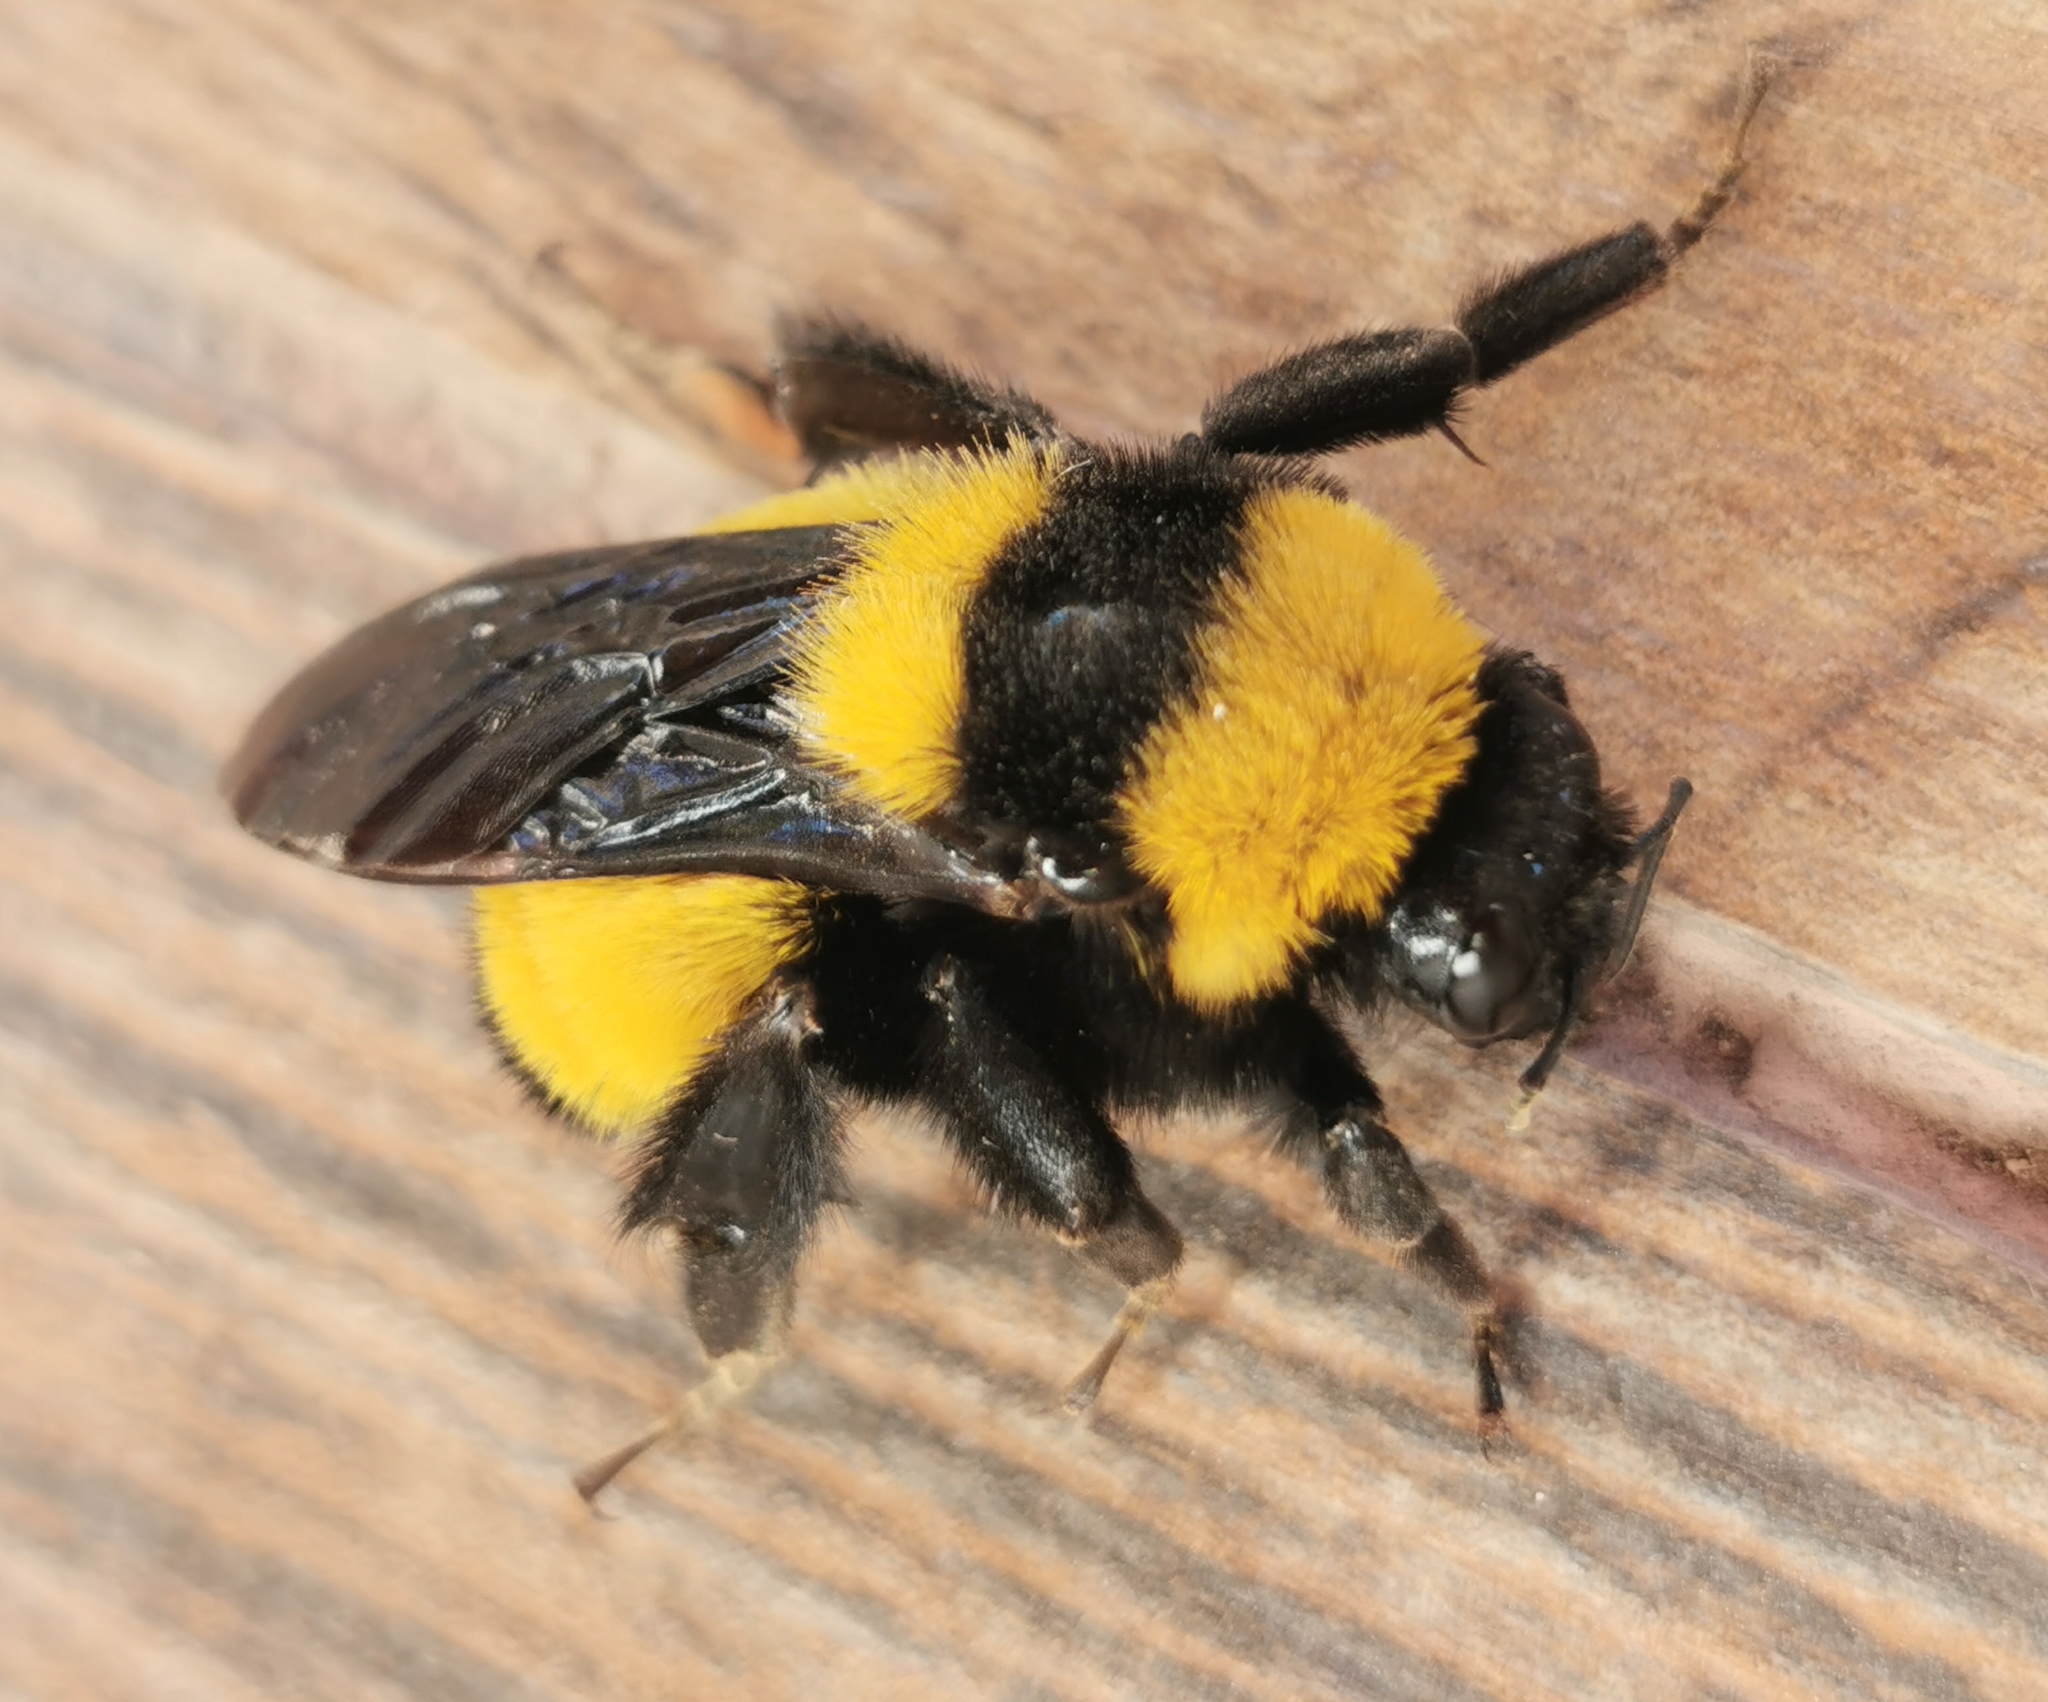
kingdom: Animalia
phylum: Arthropoda
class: Insecta
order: Hymenoptera
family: Apidae
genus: Bombus
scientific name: Bombus sonorus
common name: Sonoran bumble bee
